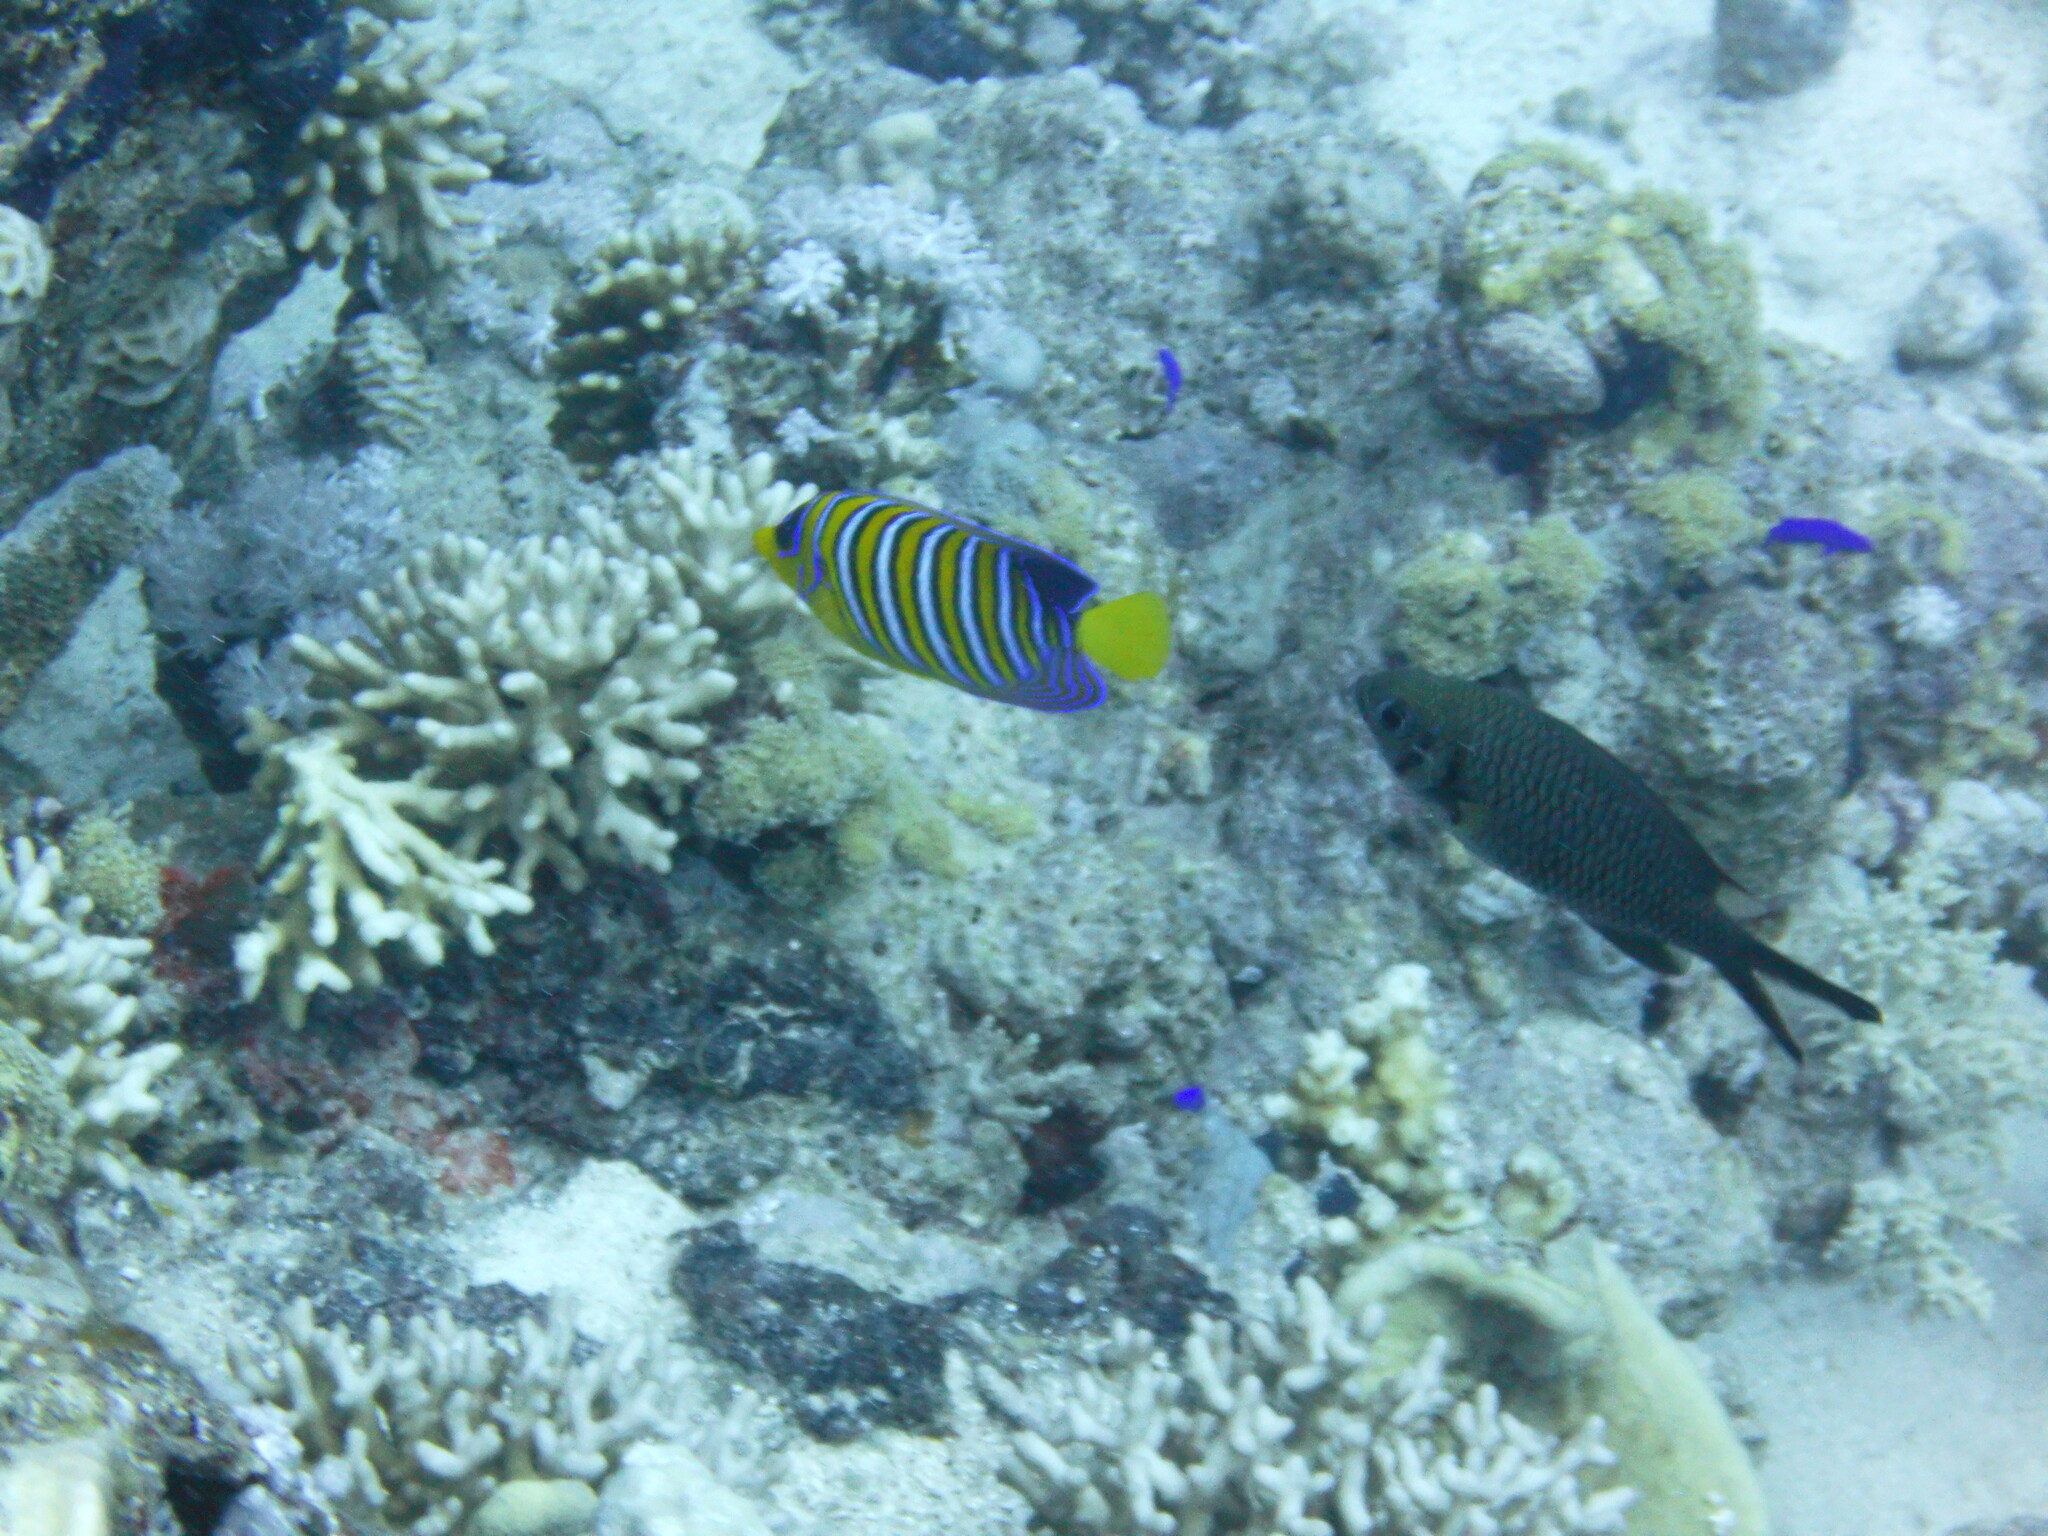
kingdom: Animalia
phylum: Chordata
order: Perciformes
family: Pomacanthidae
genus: Pygoplites
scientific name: Pygoplites diacanthus
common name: Regal angelfish
